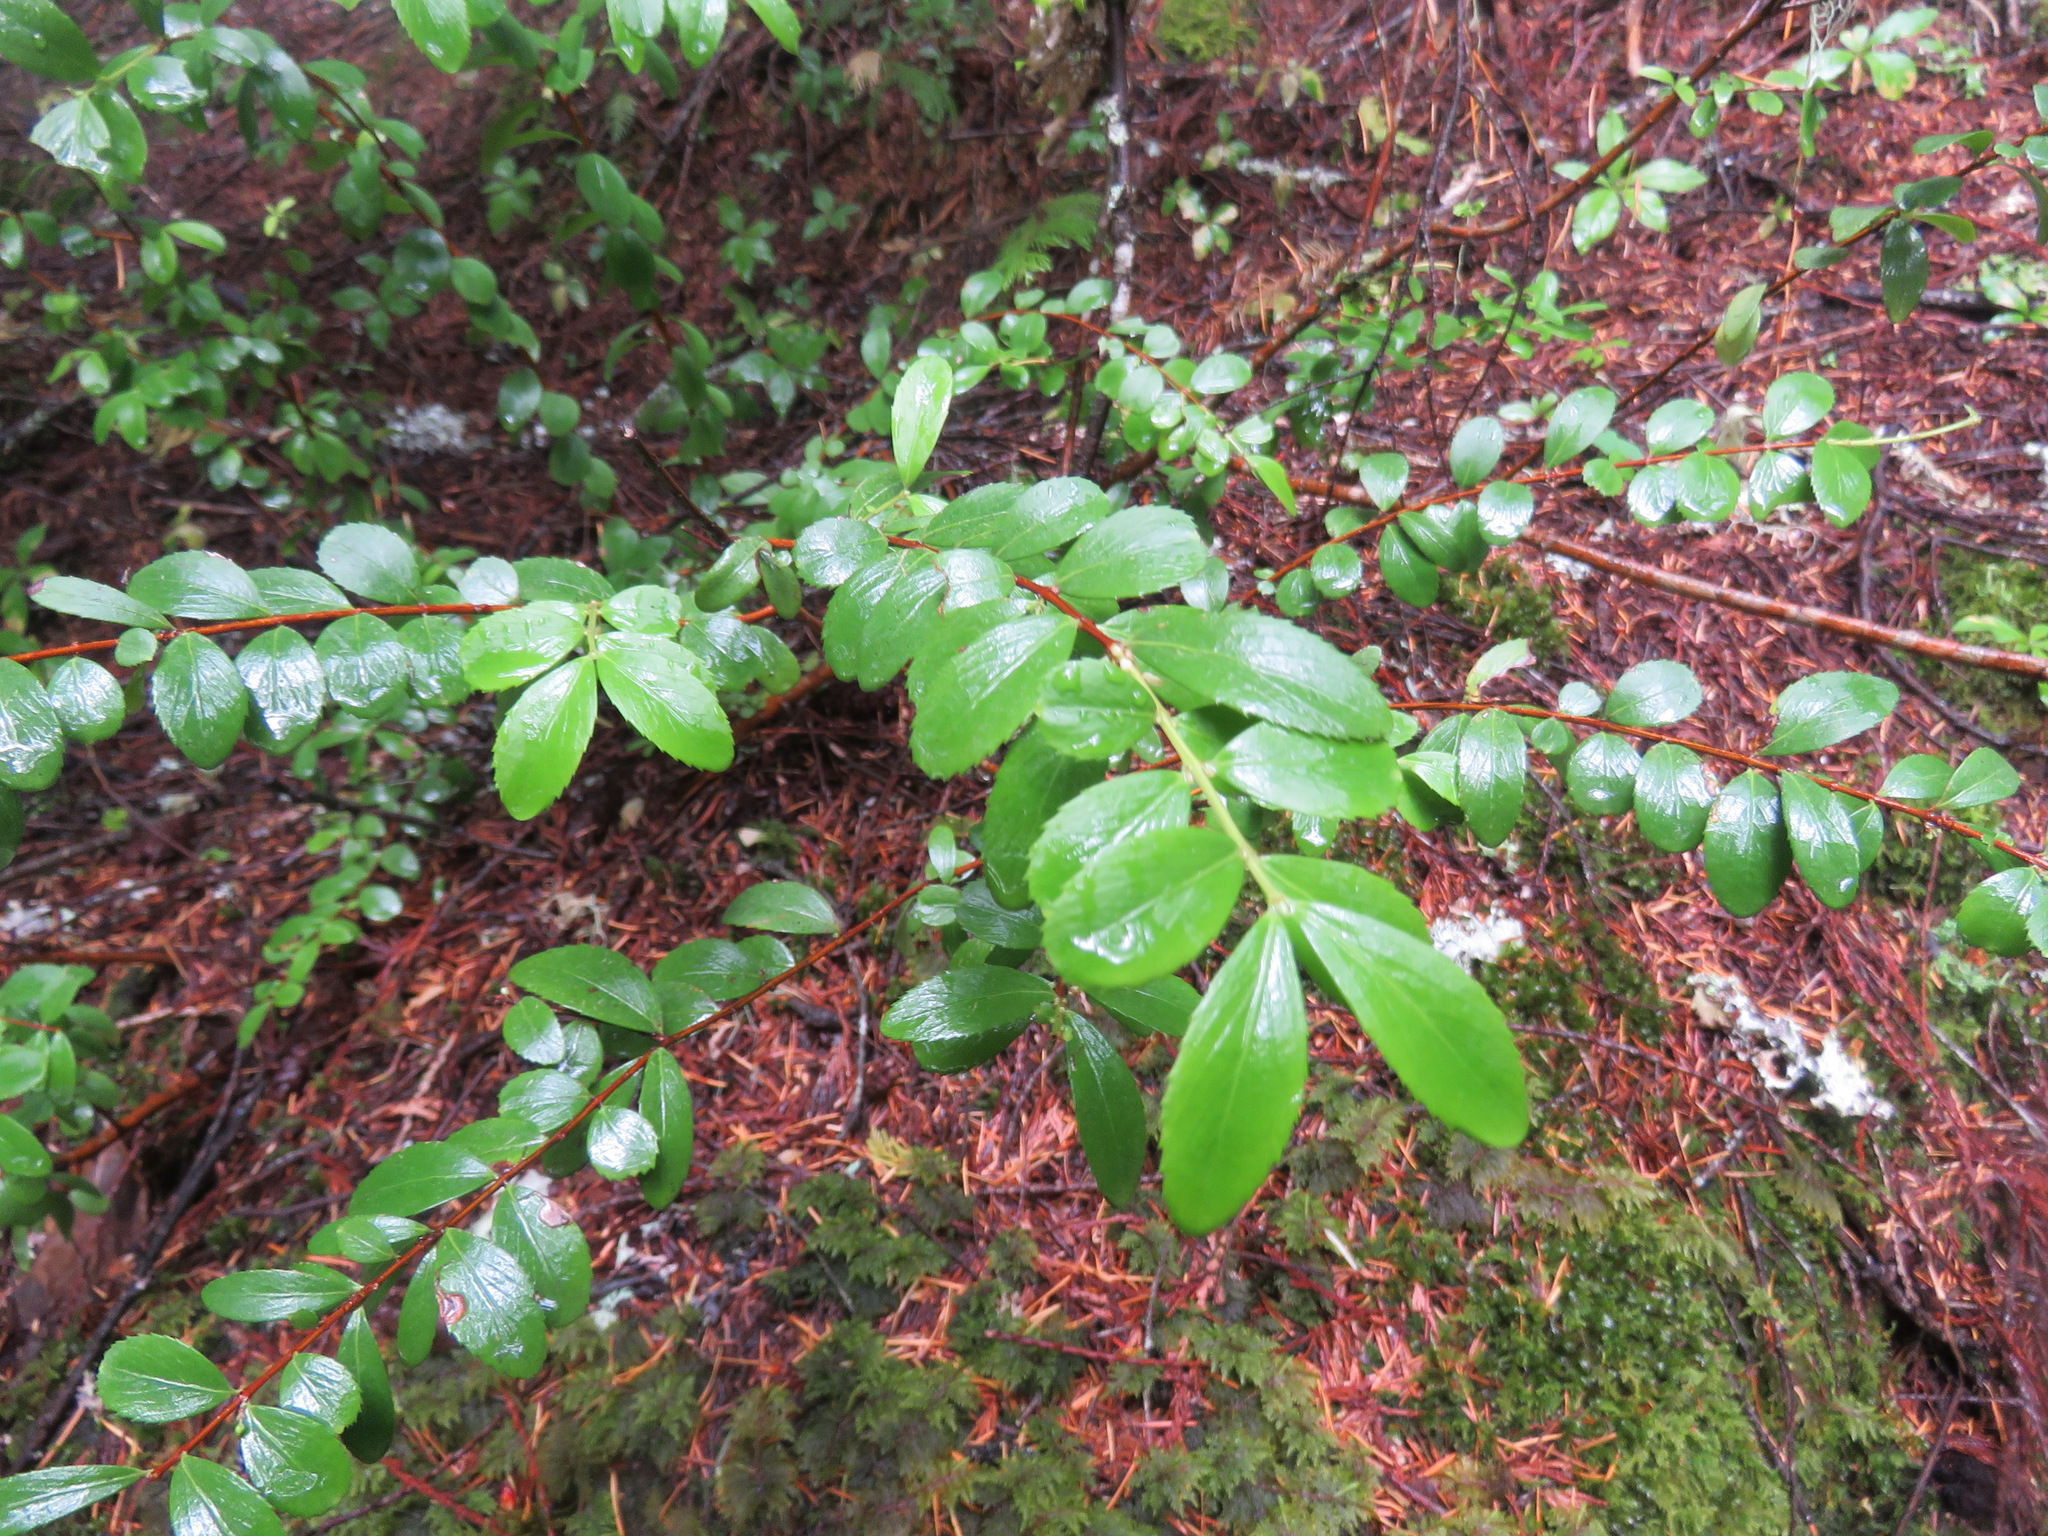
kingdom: Plantae
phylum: Tracheophyta
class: Magnoliopsida
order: Celastrales
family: Celastraceae
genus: Paxistima
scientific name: Paxistima myrsinites
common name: Mountain-lover
